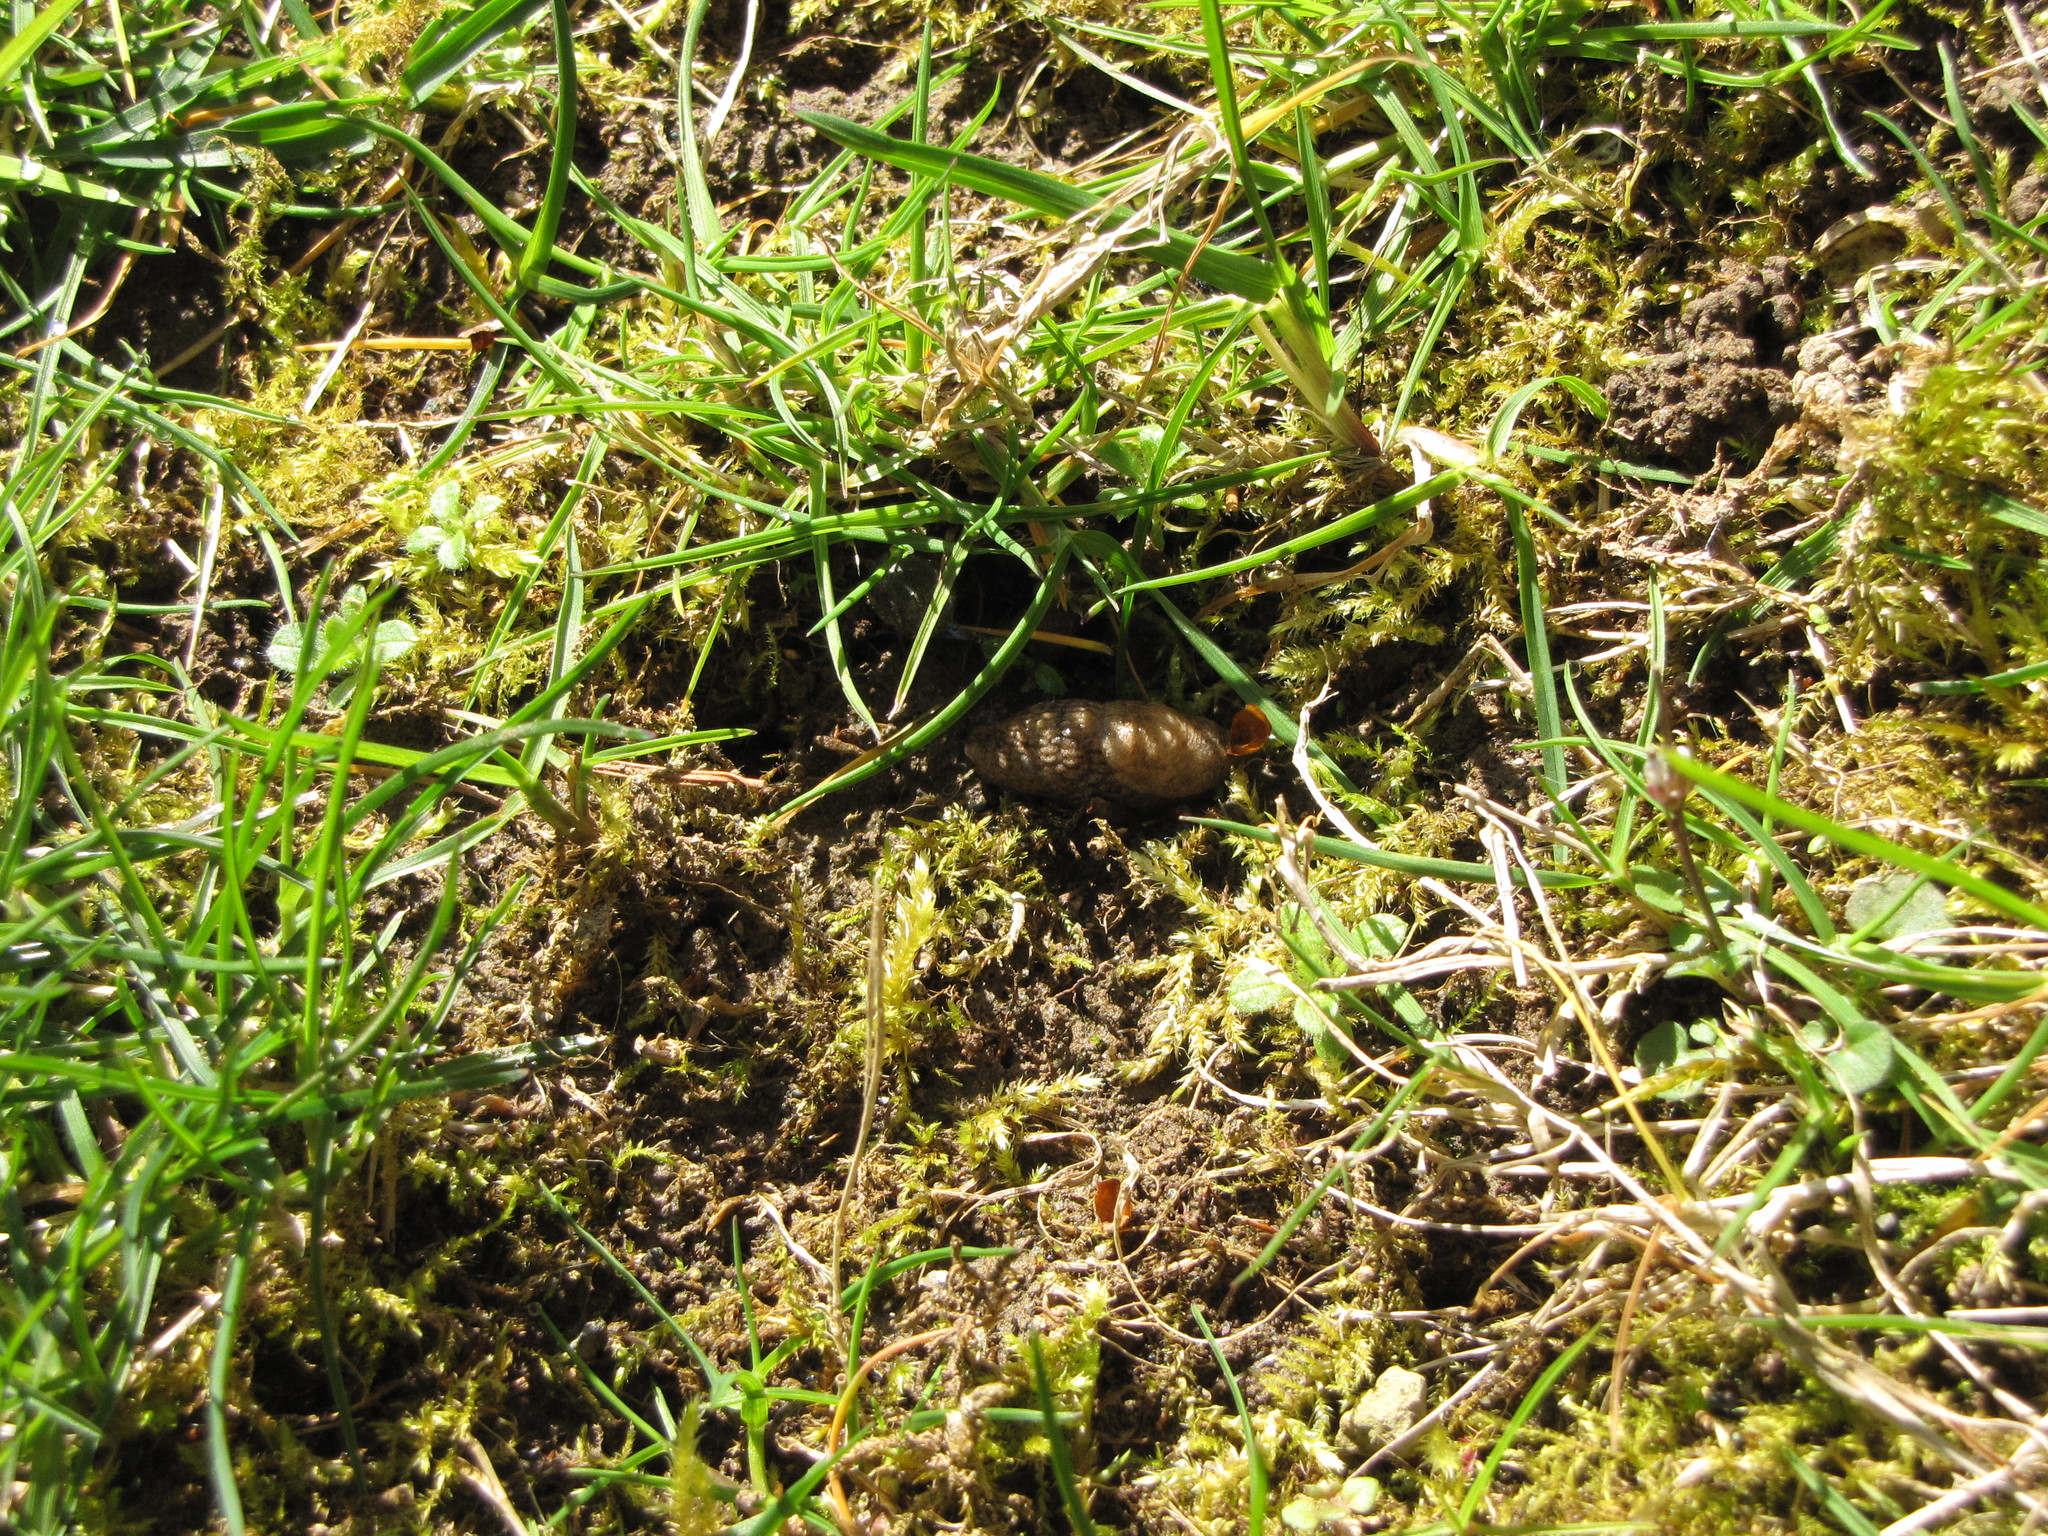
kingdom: Animalia
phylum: Mollusca
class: Gastropoda
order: Stylommatophora
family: Agriolimacidae
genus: Deroceras
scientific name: Deroceras reticulatum
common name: Gray field slug
